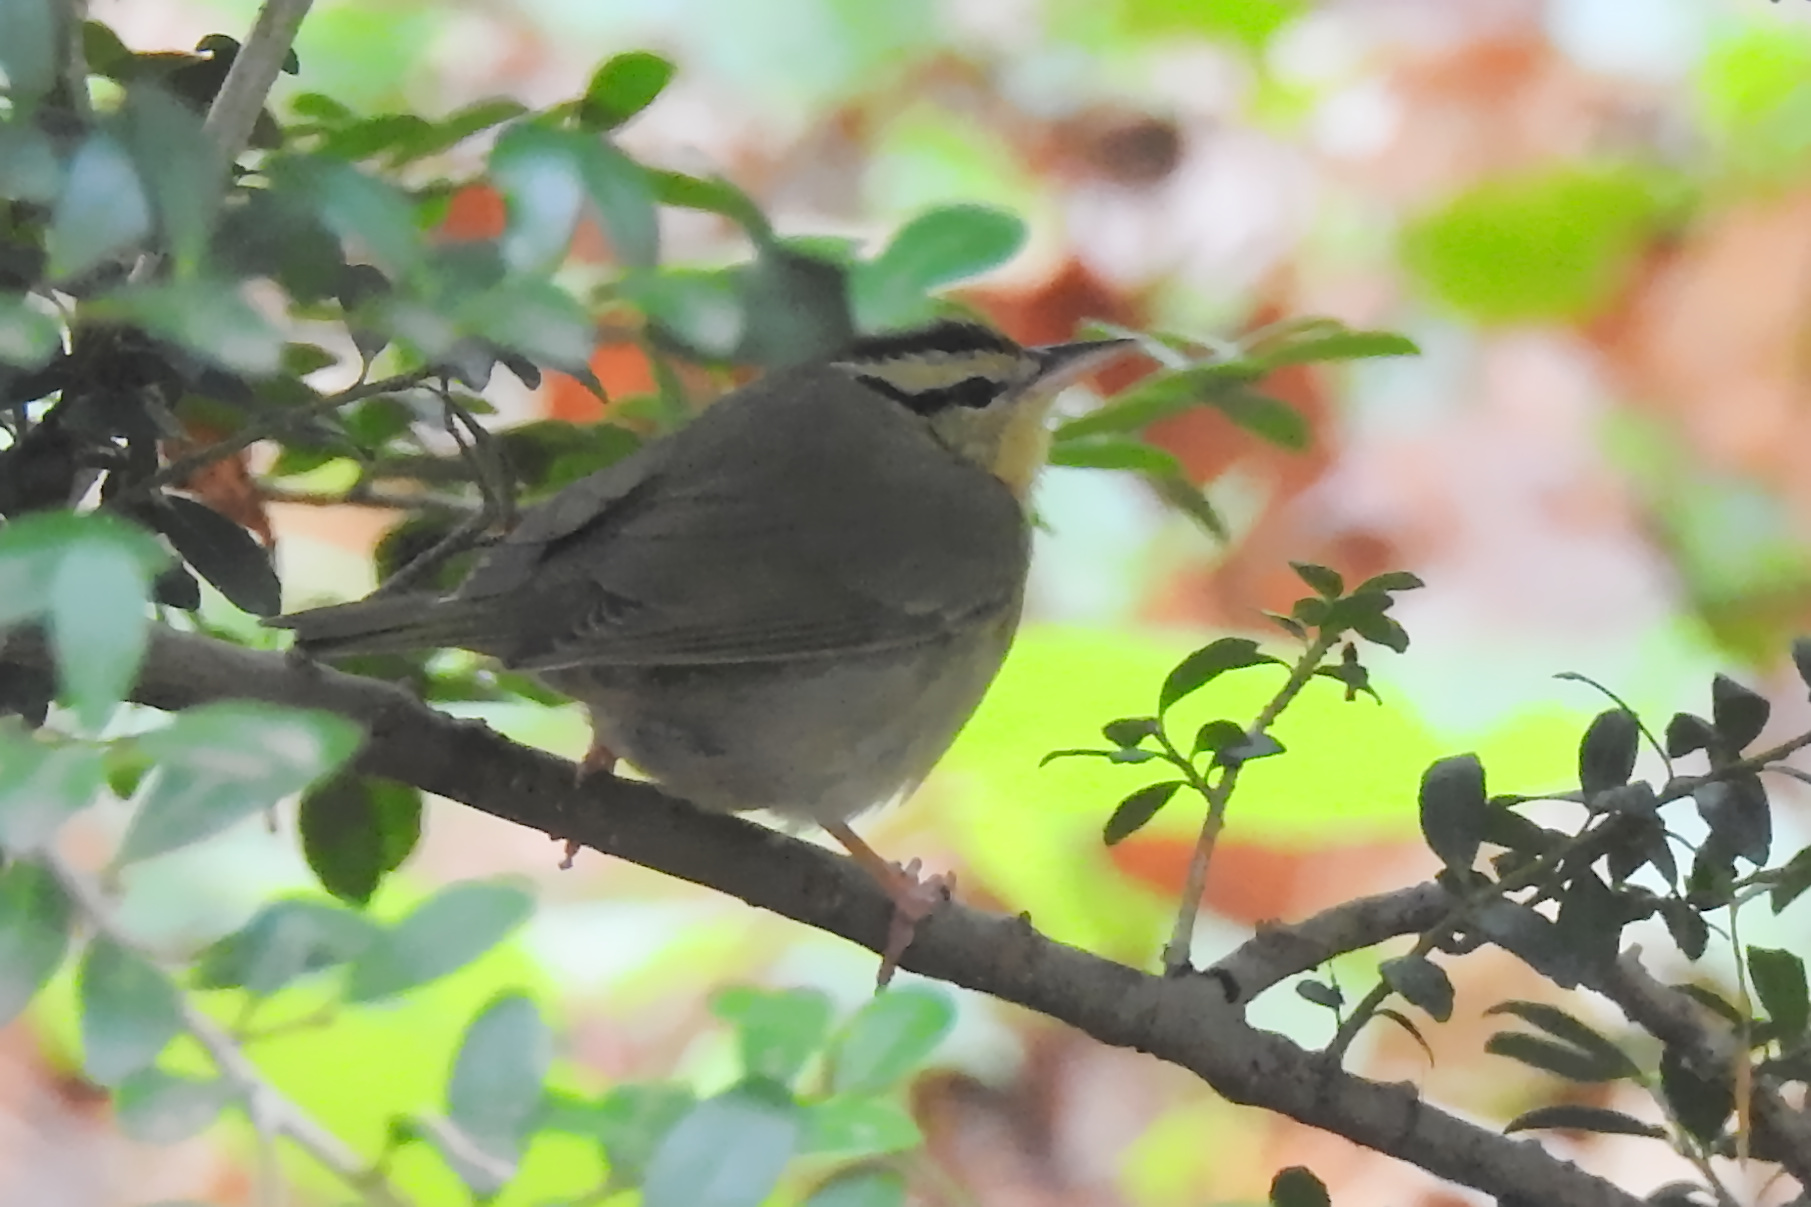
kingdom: Animalia
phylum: Chordata
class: Aves
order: Passeriformes
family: Parulidae
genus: Helmitheros
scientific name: Helmitheros vermivorum
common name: Worm-eating warbler
